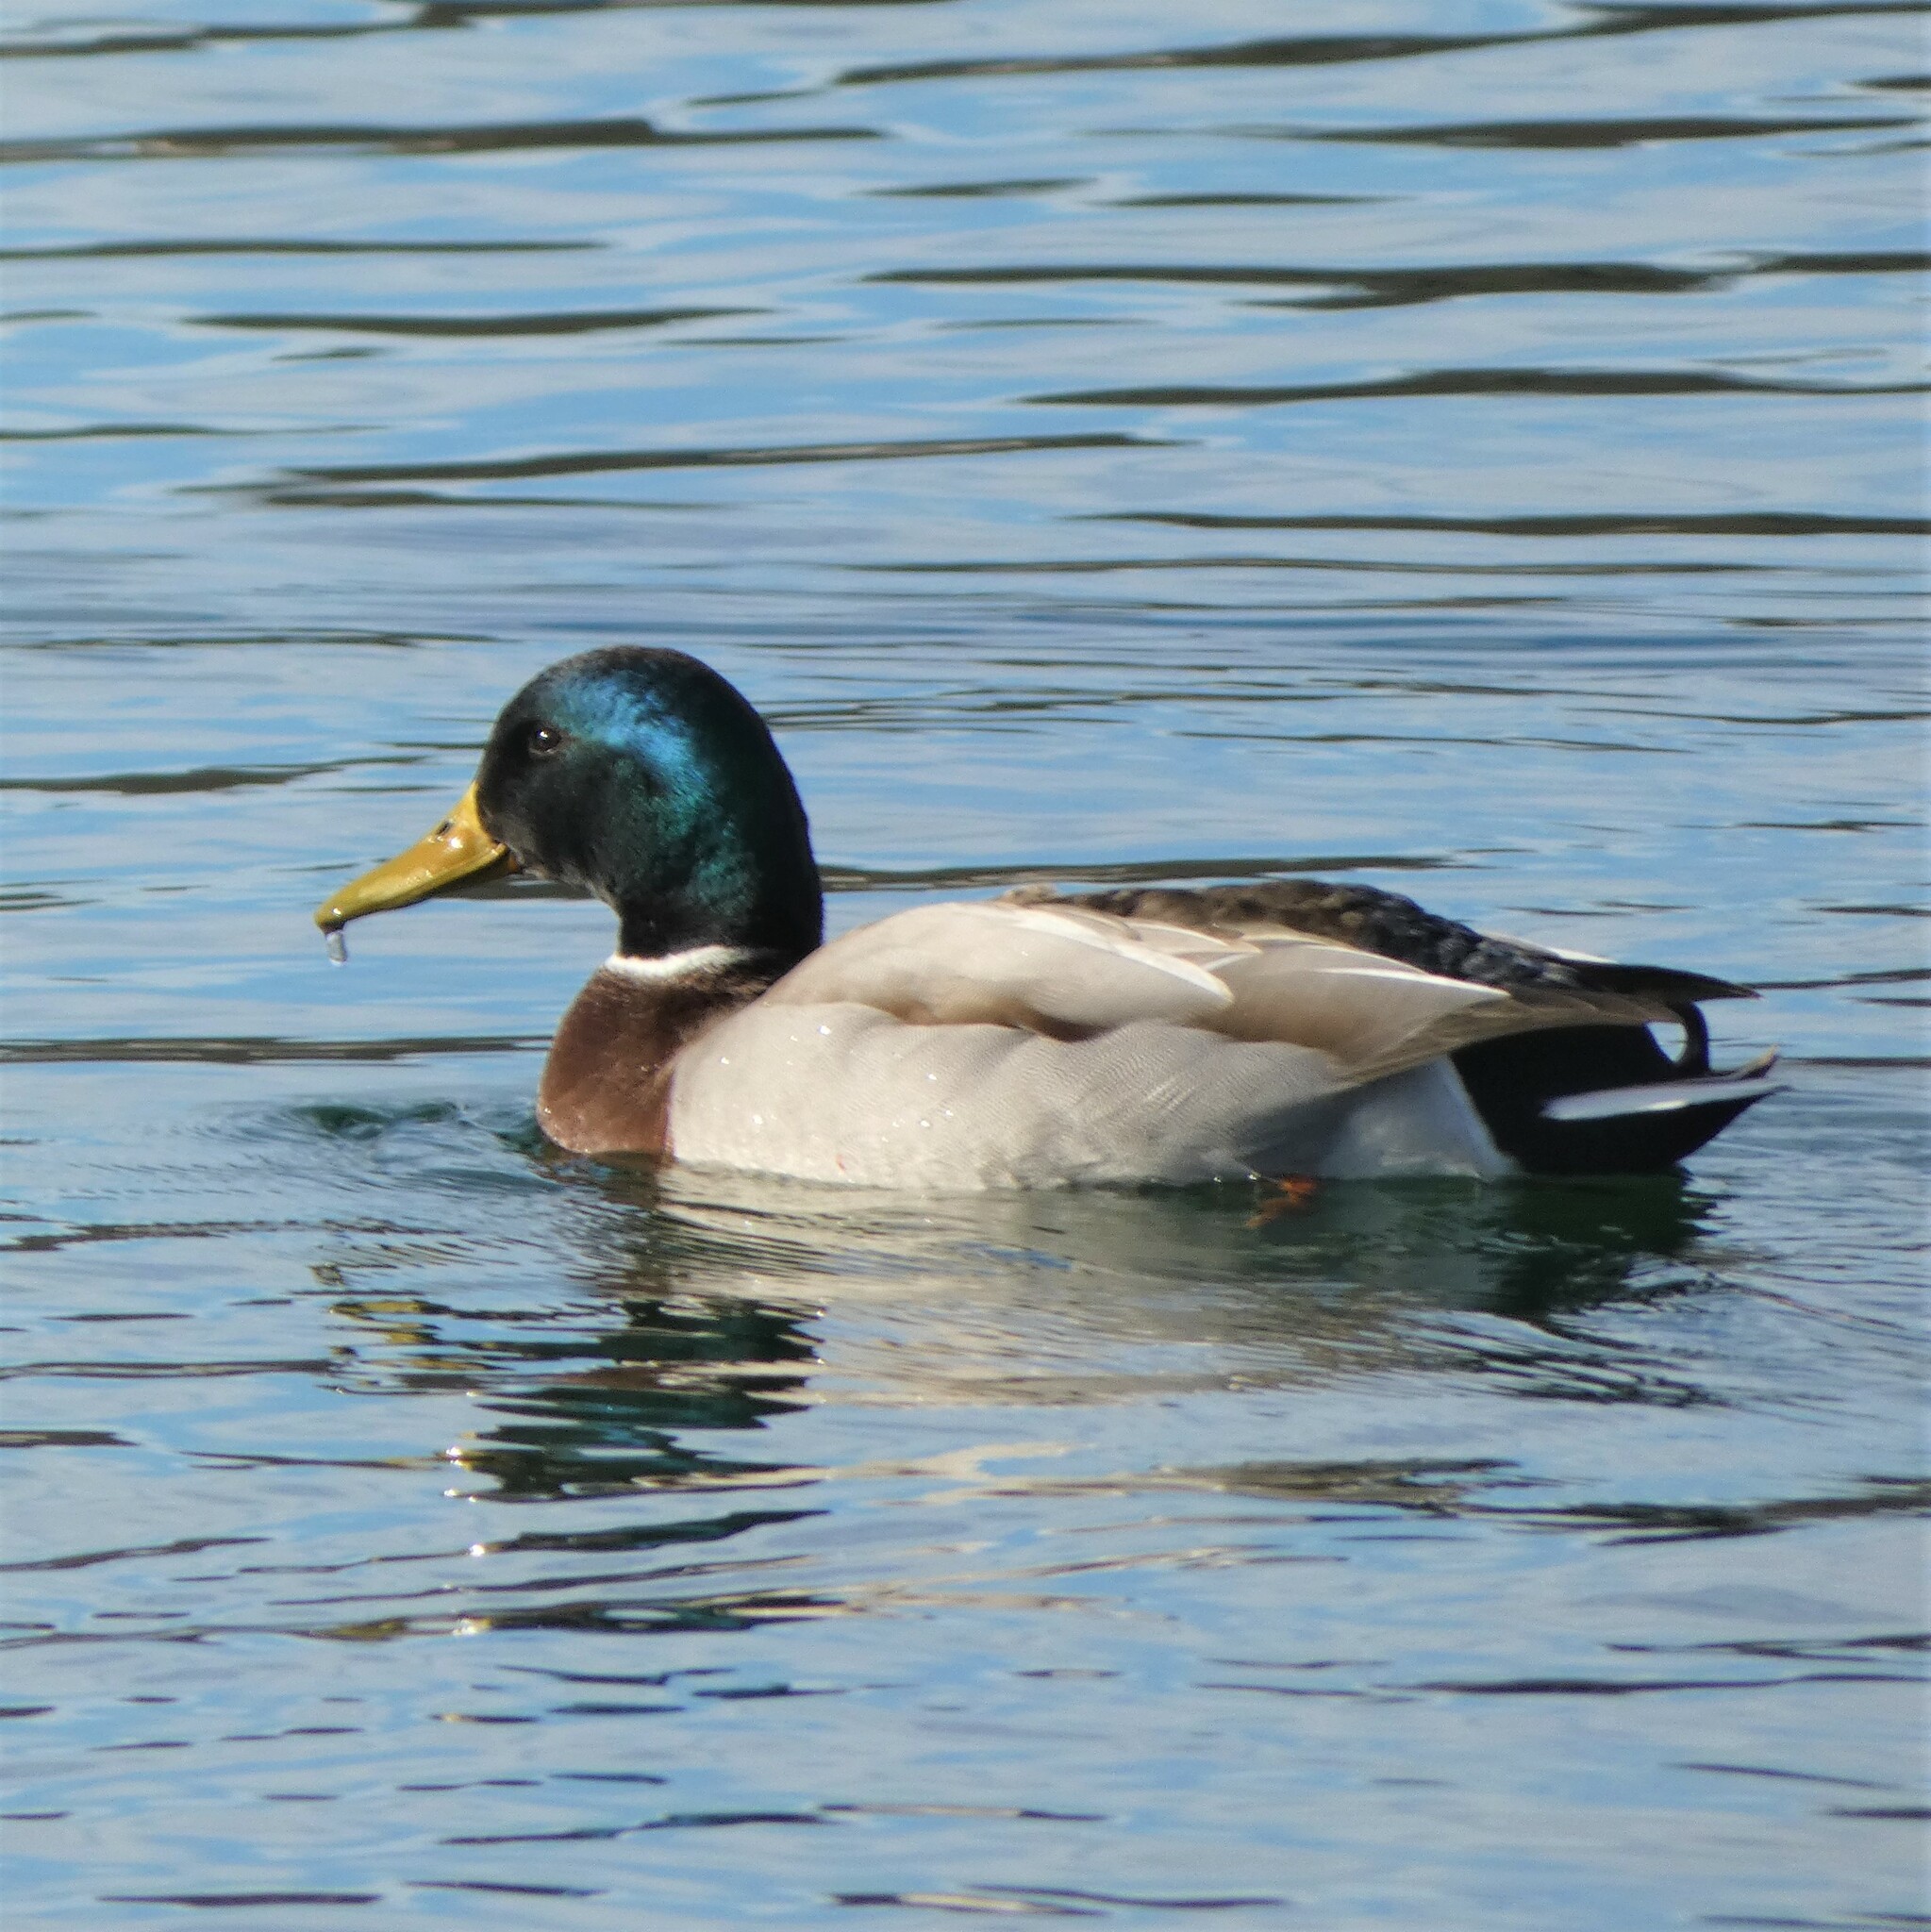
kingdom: Animalia
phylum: Chordata
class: Aves
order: Anseriformes
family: Anatidae
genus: Anas
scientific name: Anas platyrhynchos
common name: Mallard
